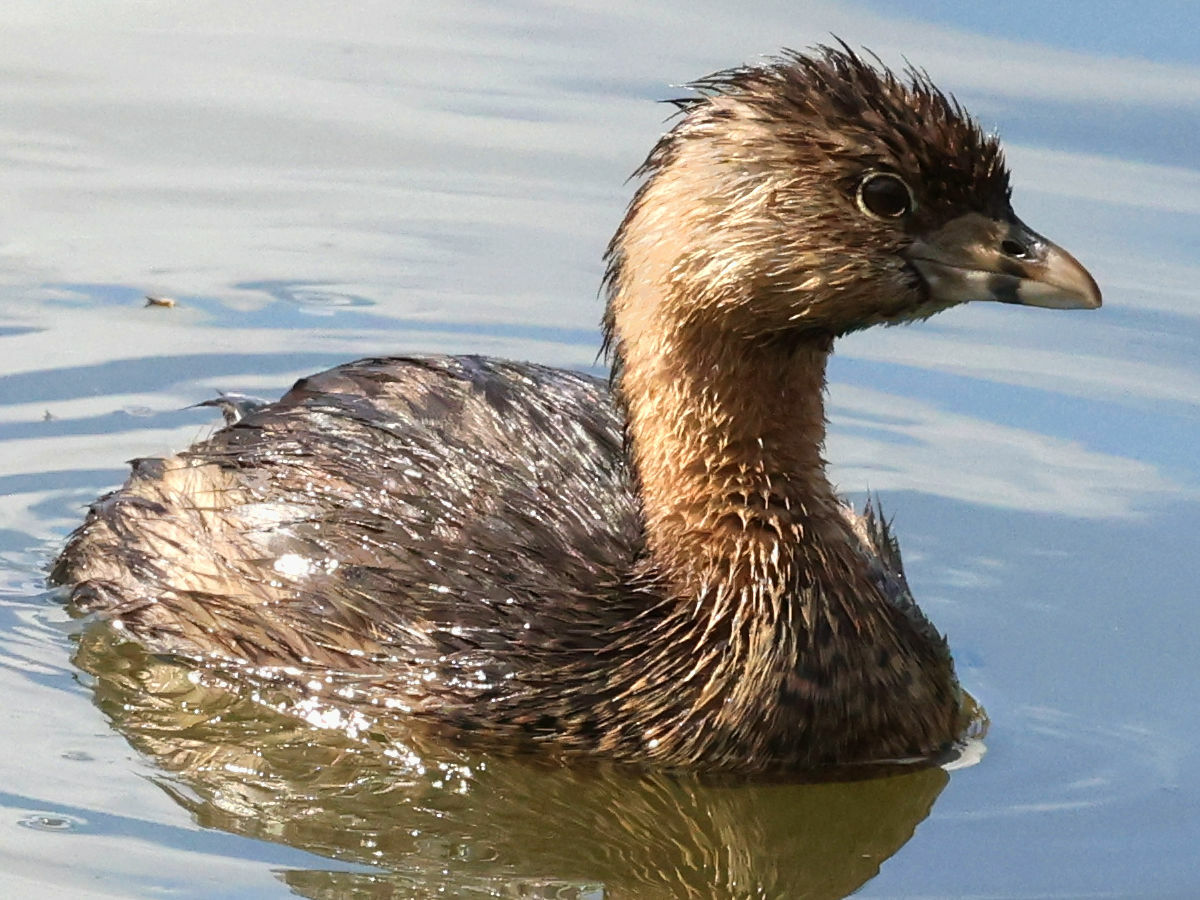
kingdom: Animalia
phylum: Chordata
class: Aves
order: Podicipediformes
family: Podicipedidae
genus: Podilymbus
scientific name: Podilymbus podiceps
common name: Pied-billed grebe
